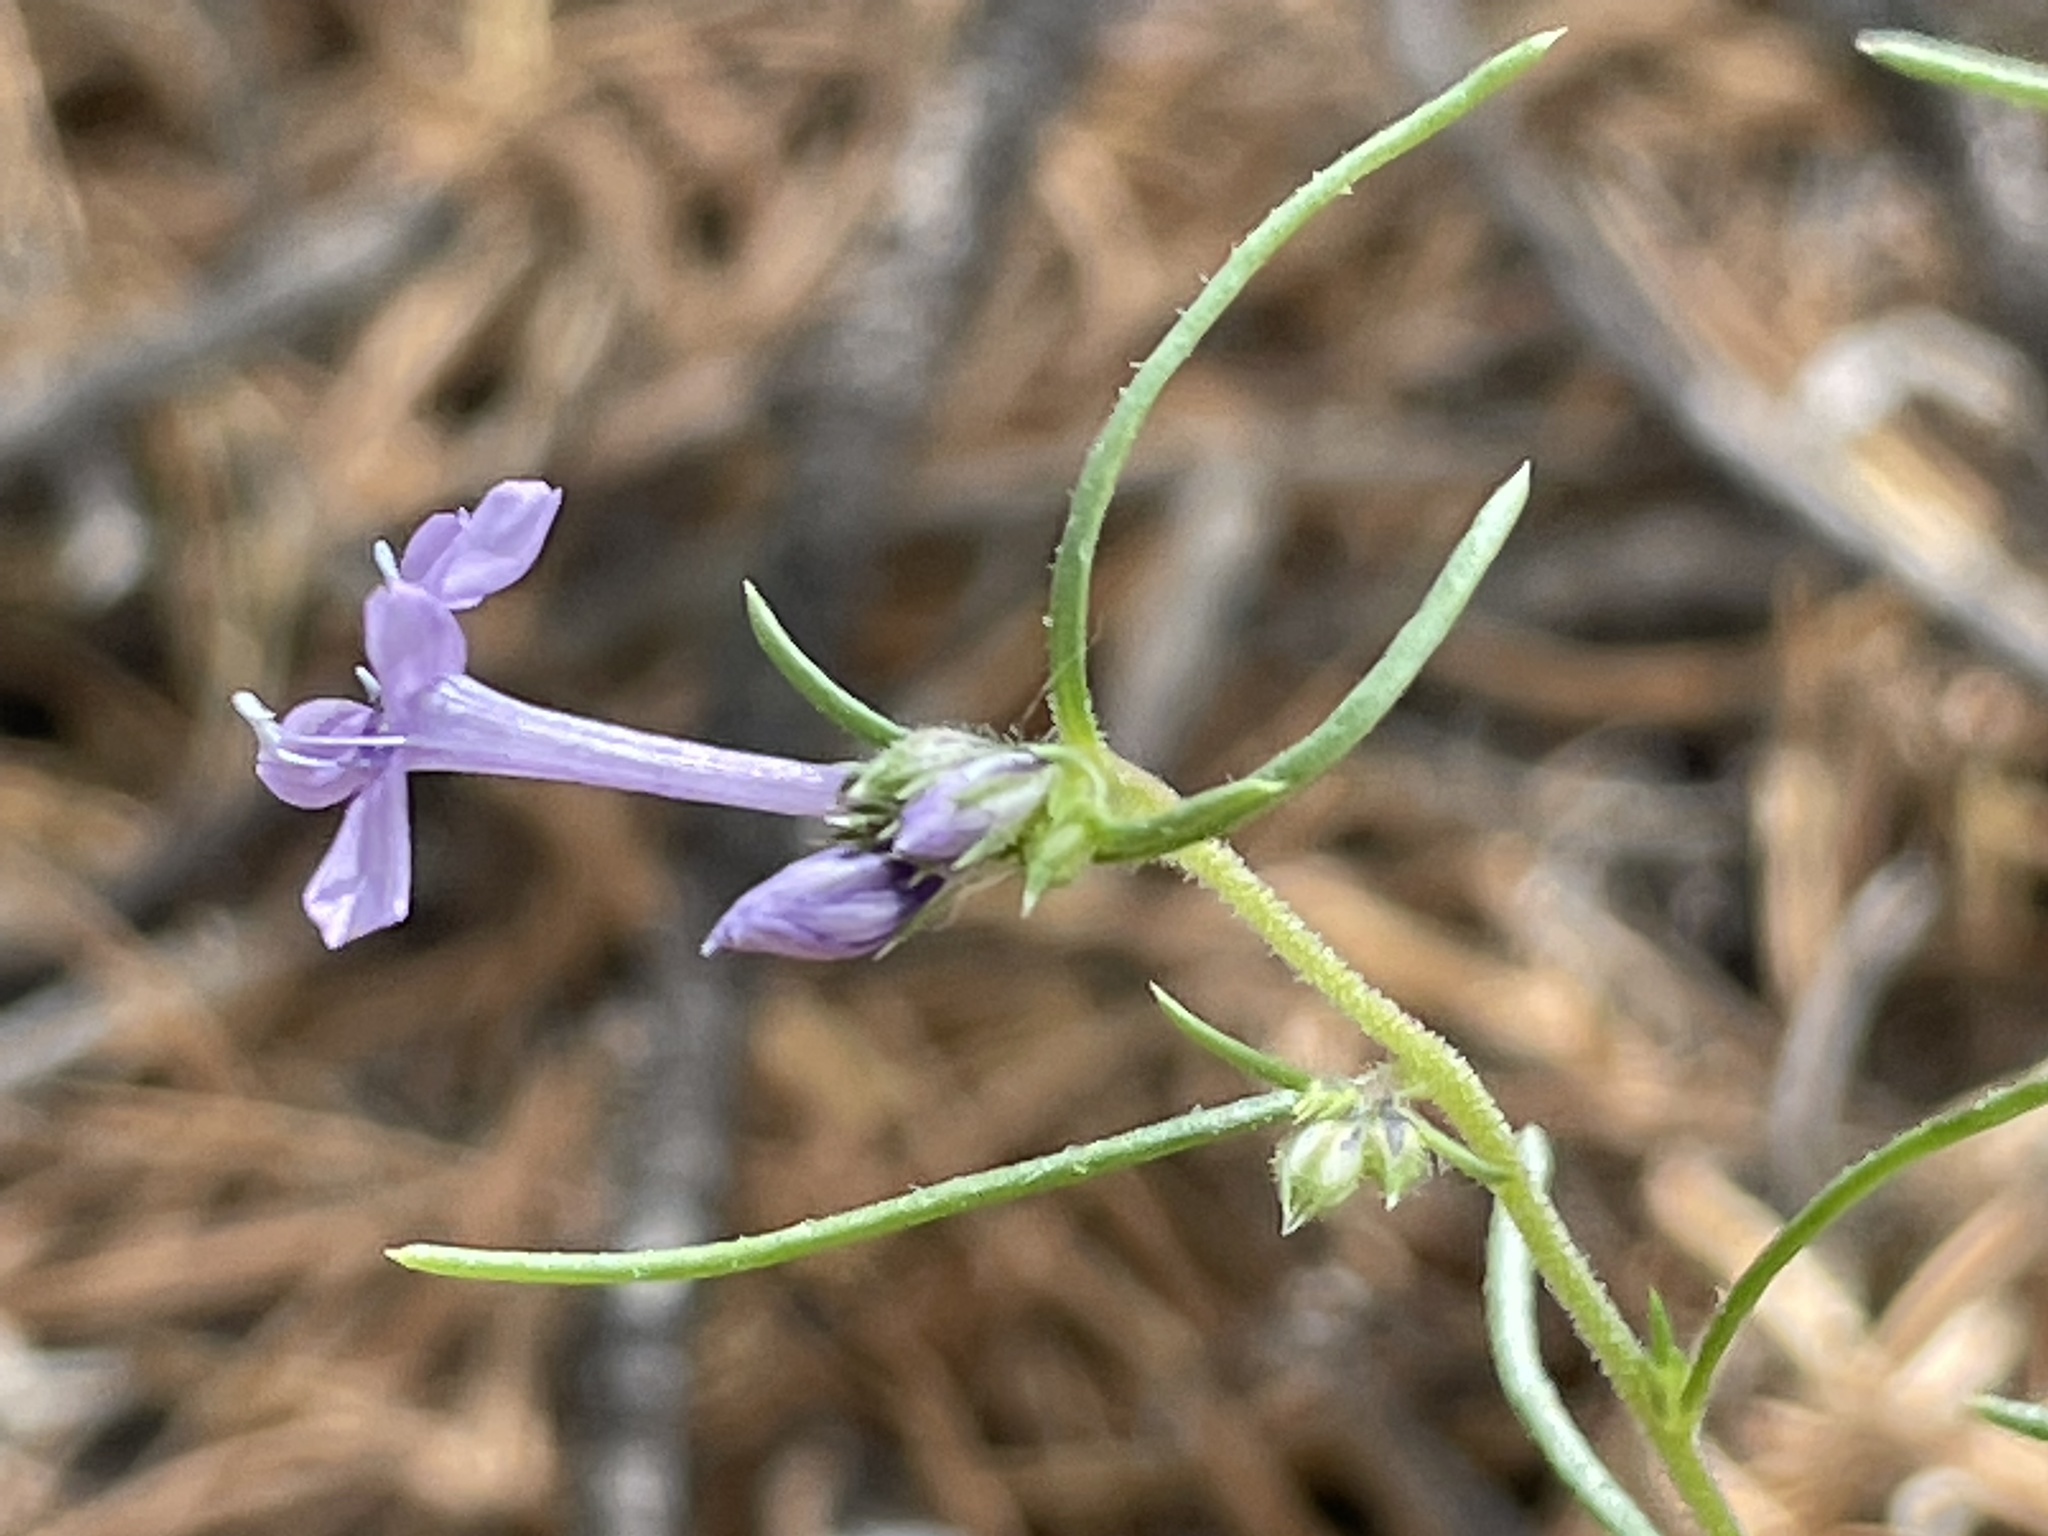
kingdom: Plantae
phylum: Tracheophyta
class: Magnoliopsida
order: Ericales
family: Polemoniaceae
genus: Ipomopsis
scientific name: Ipomopsis multiflora
